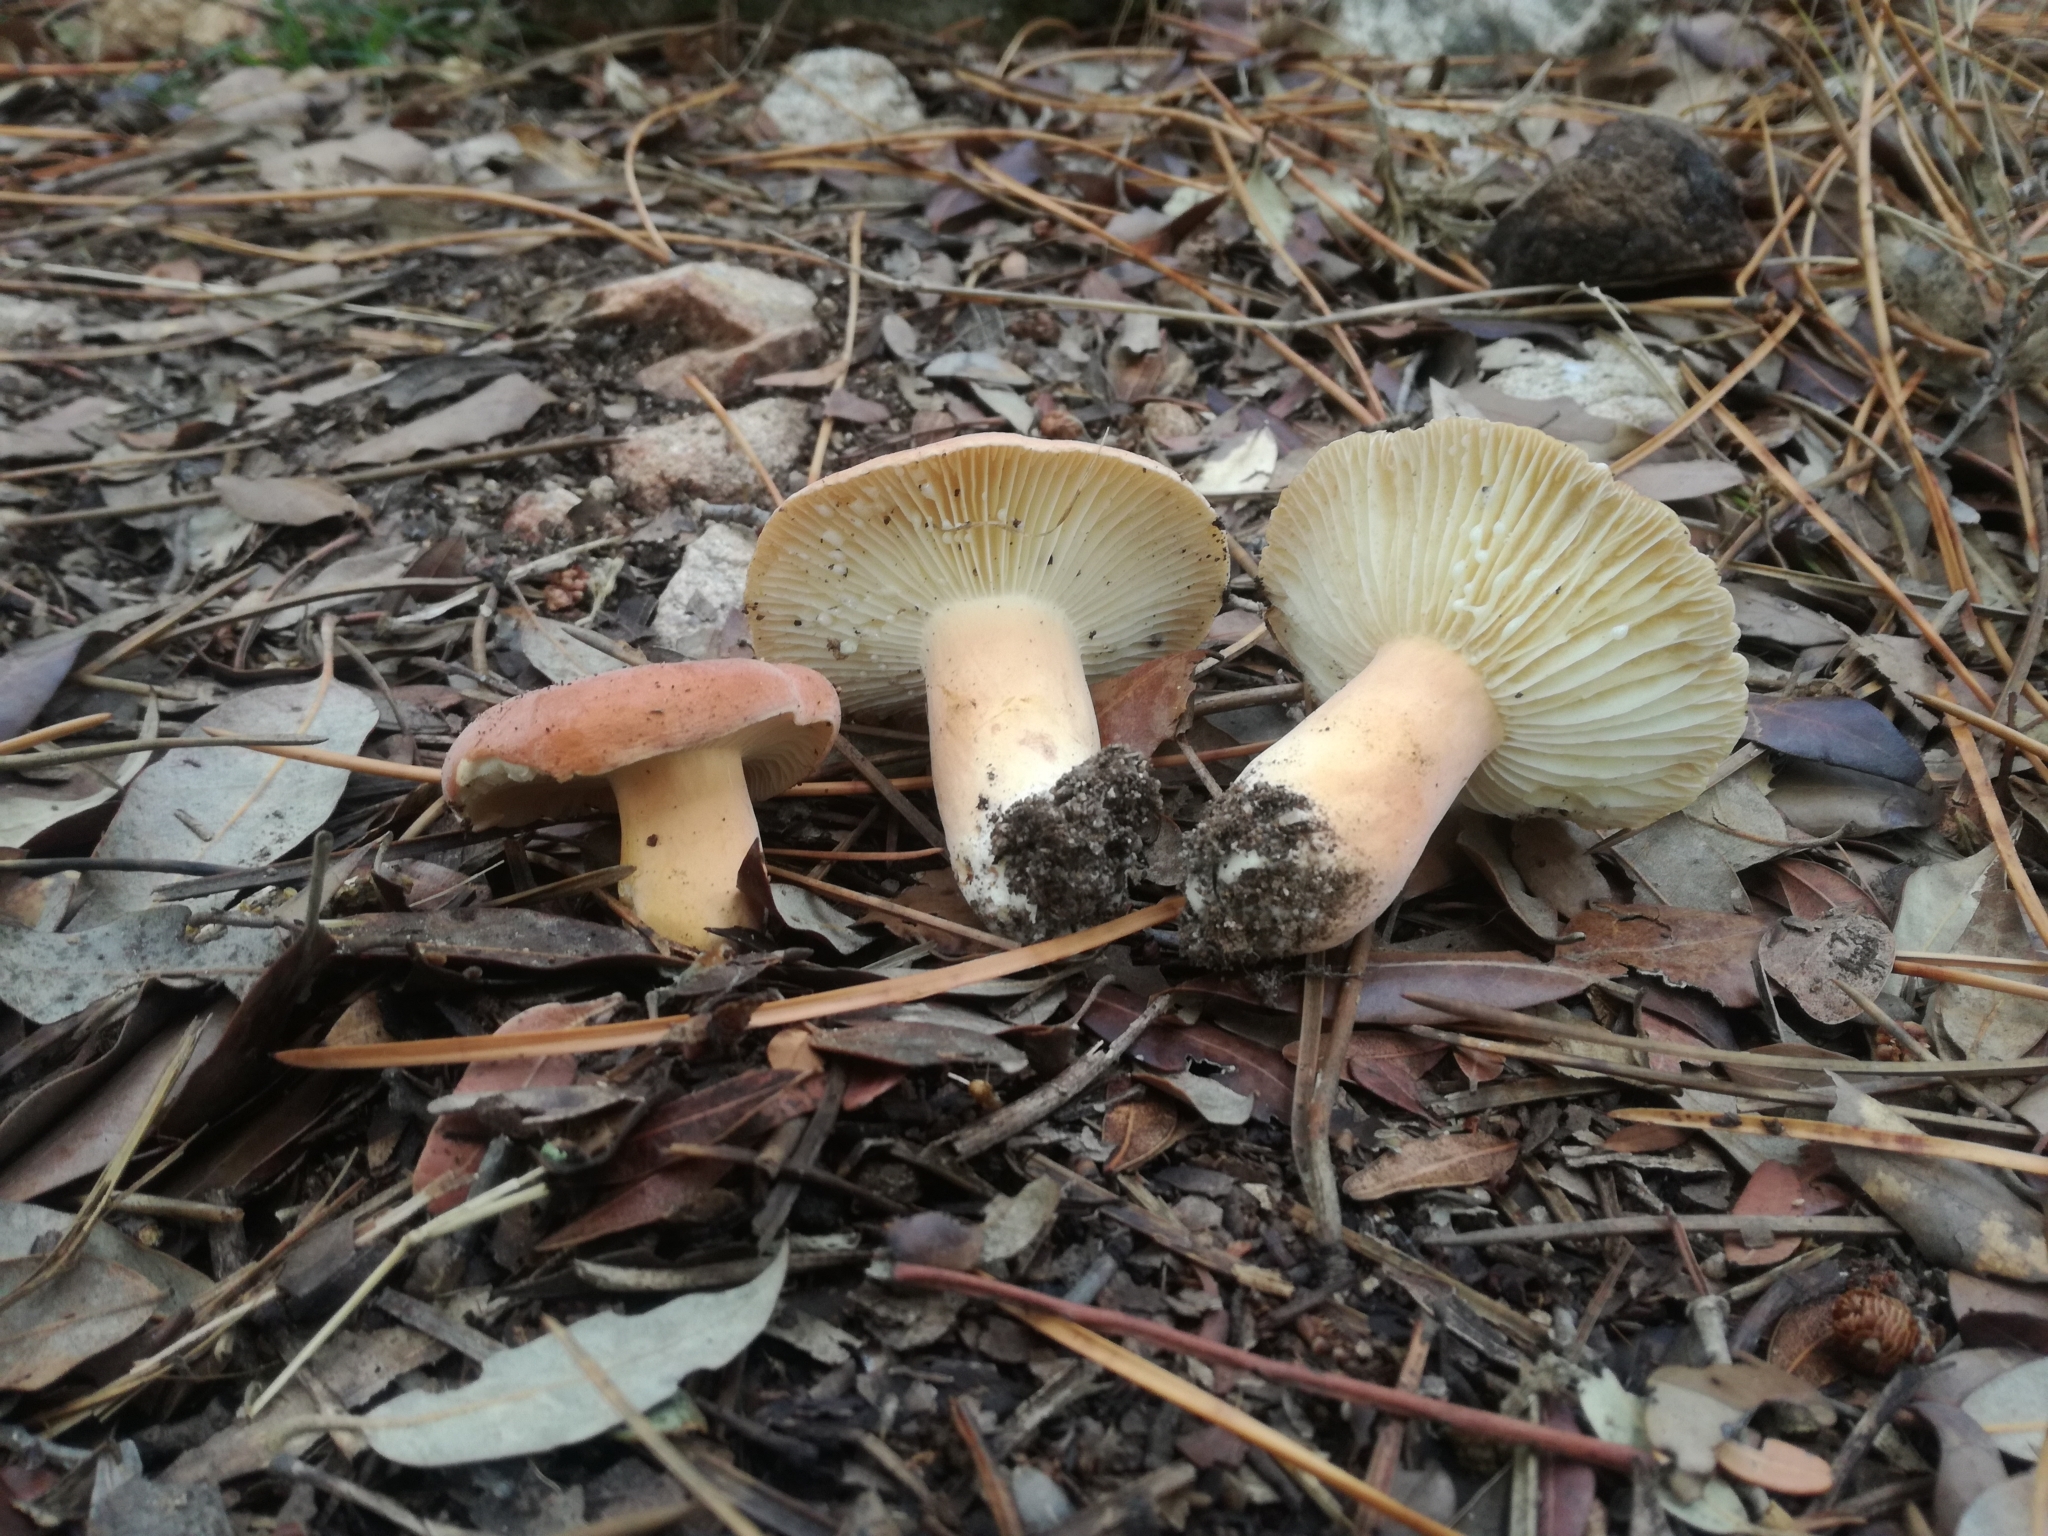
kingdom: Fungi
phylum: Basidiomycota
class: Agaricomycetes
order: Russulales
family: Russulaceae
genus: Lactifluus
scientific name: Lactifluus rugatus
